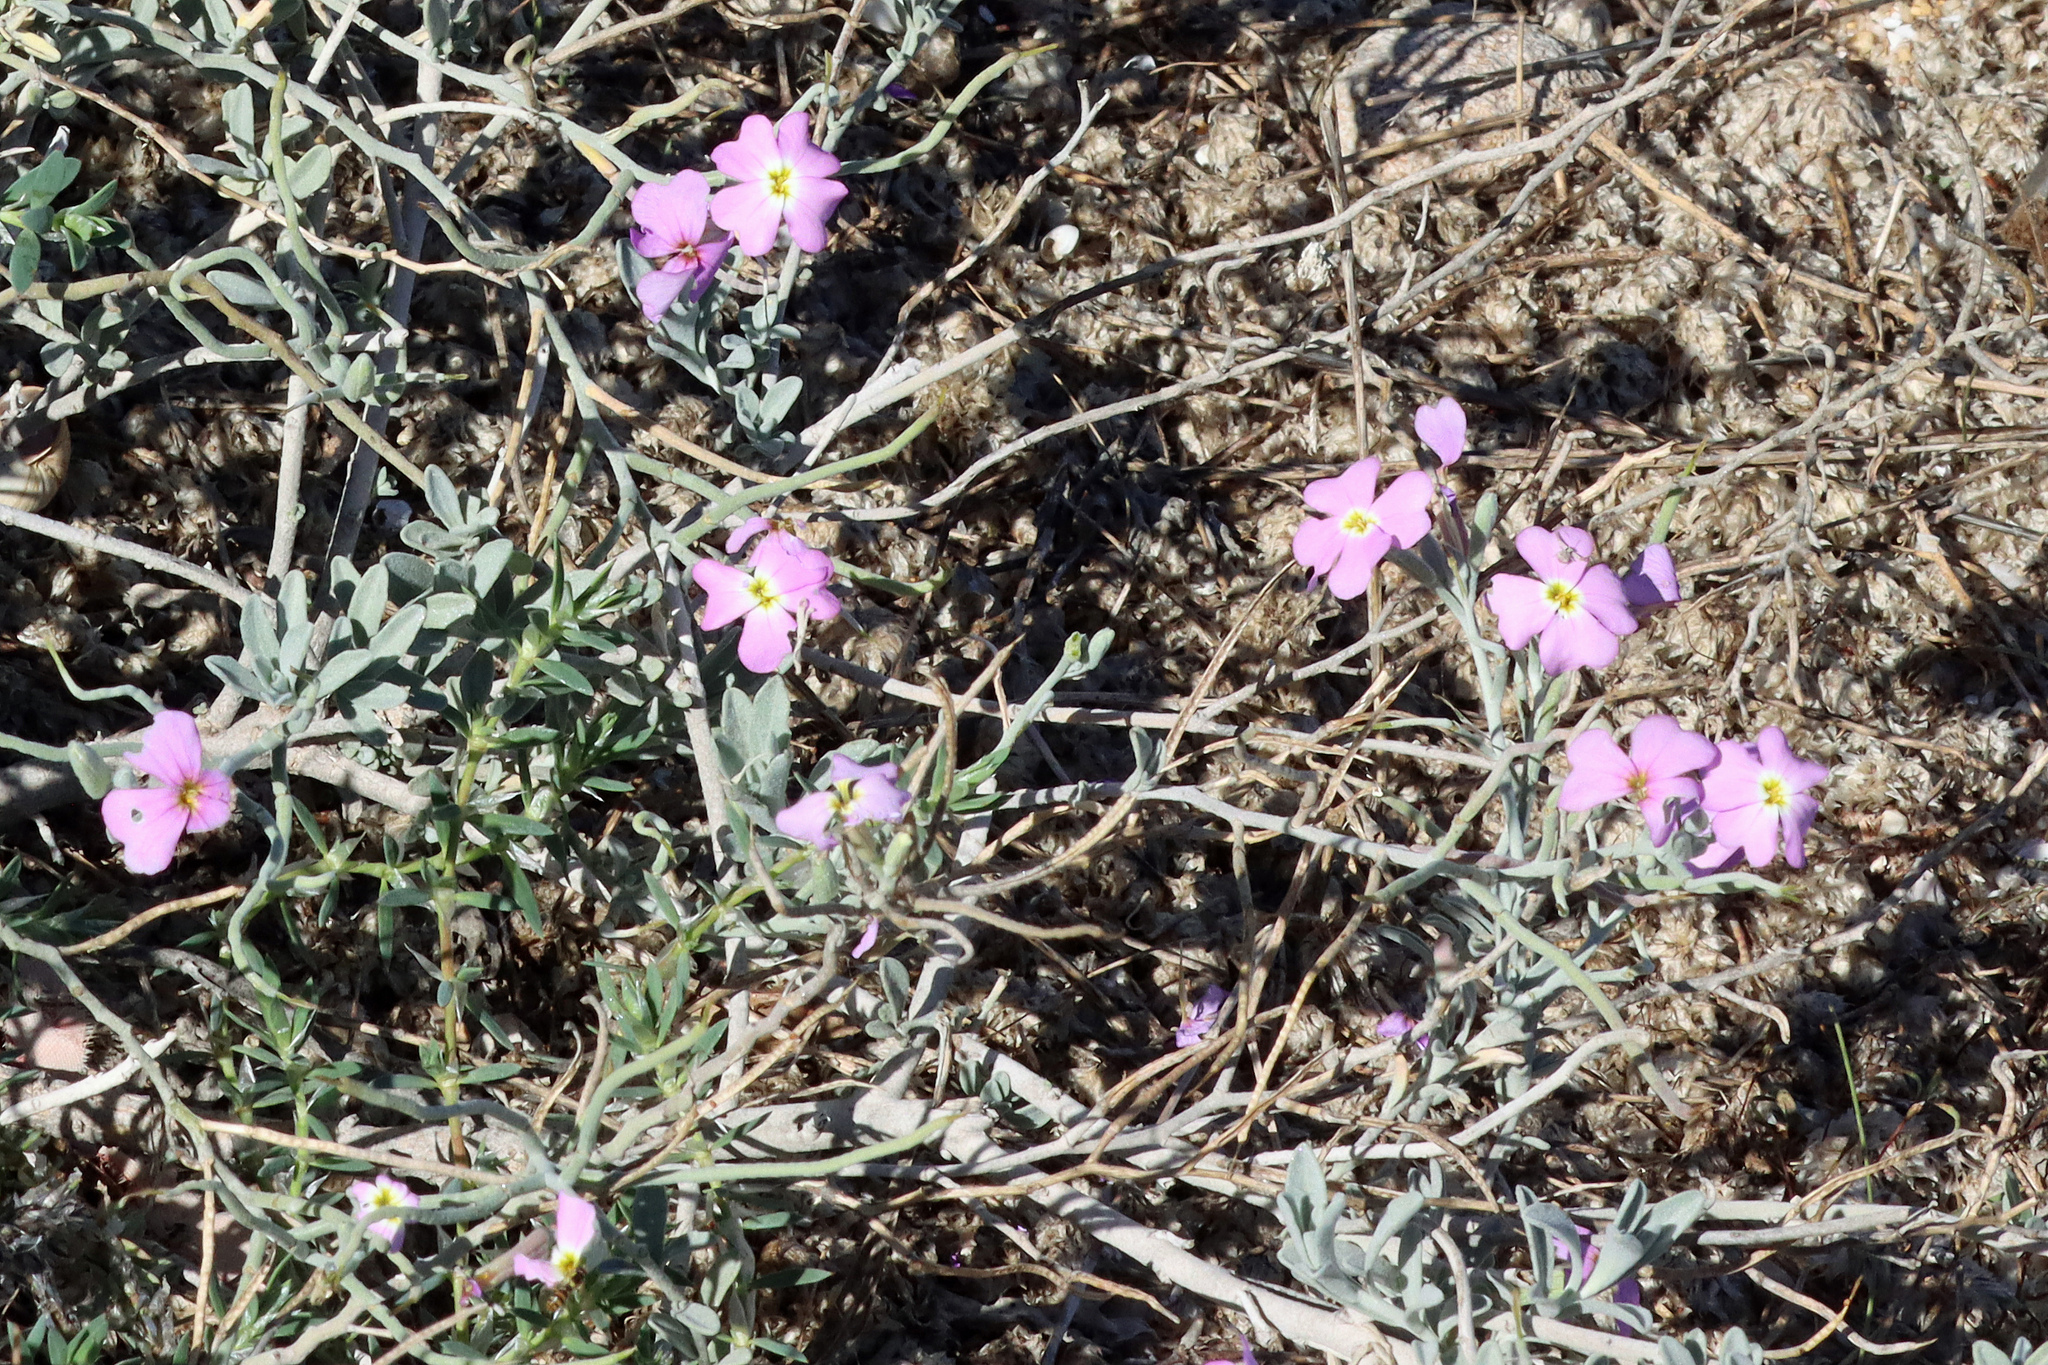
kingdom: Plantae
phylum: Tracheophyta
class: Magnoliopsida
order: Brassicales
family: Brassicaceae
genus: Marcuskochia
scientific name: Marcuskochia littorea
